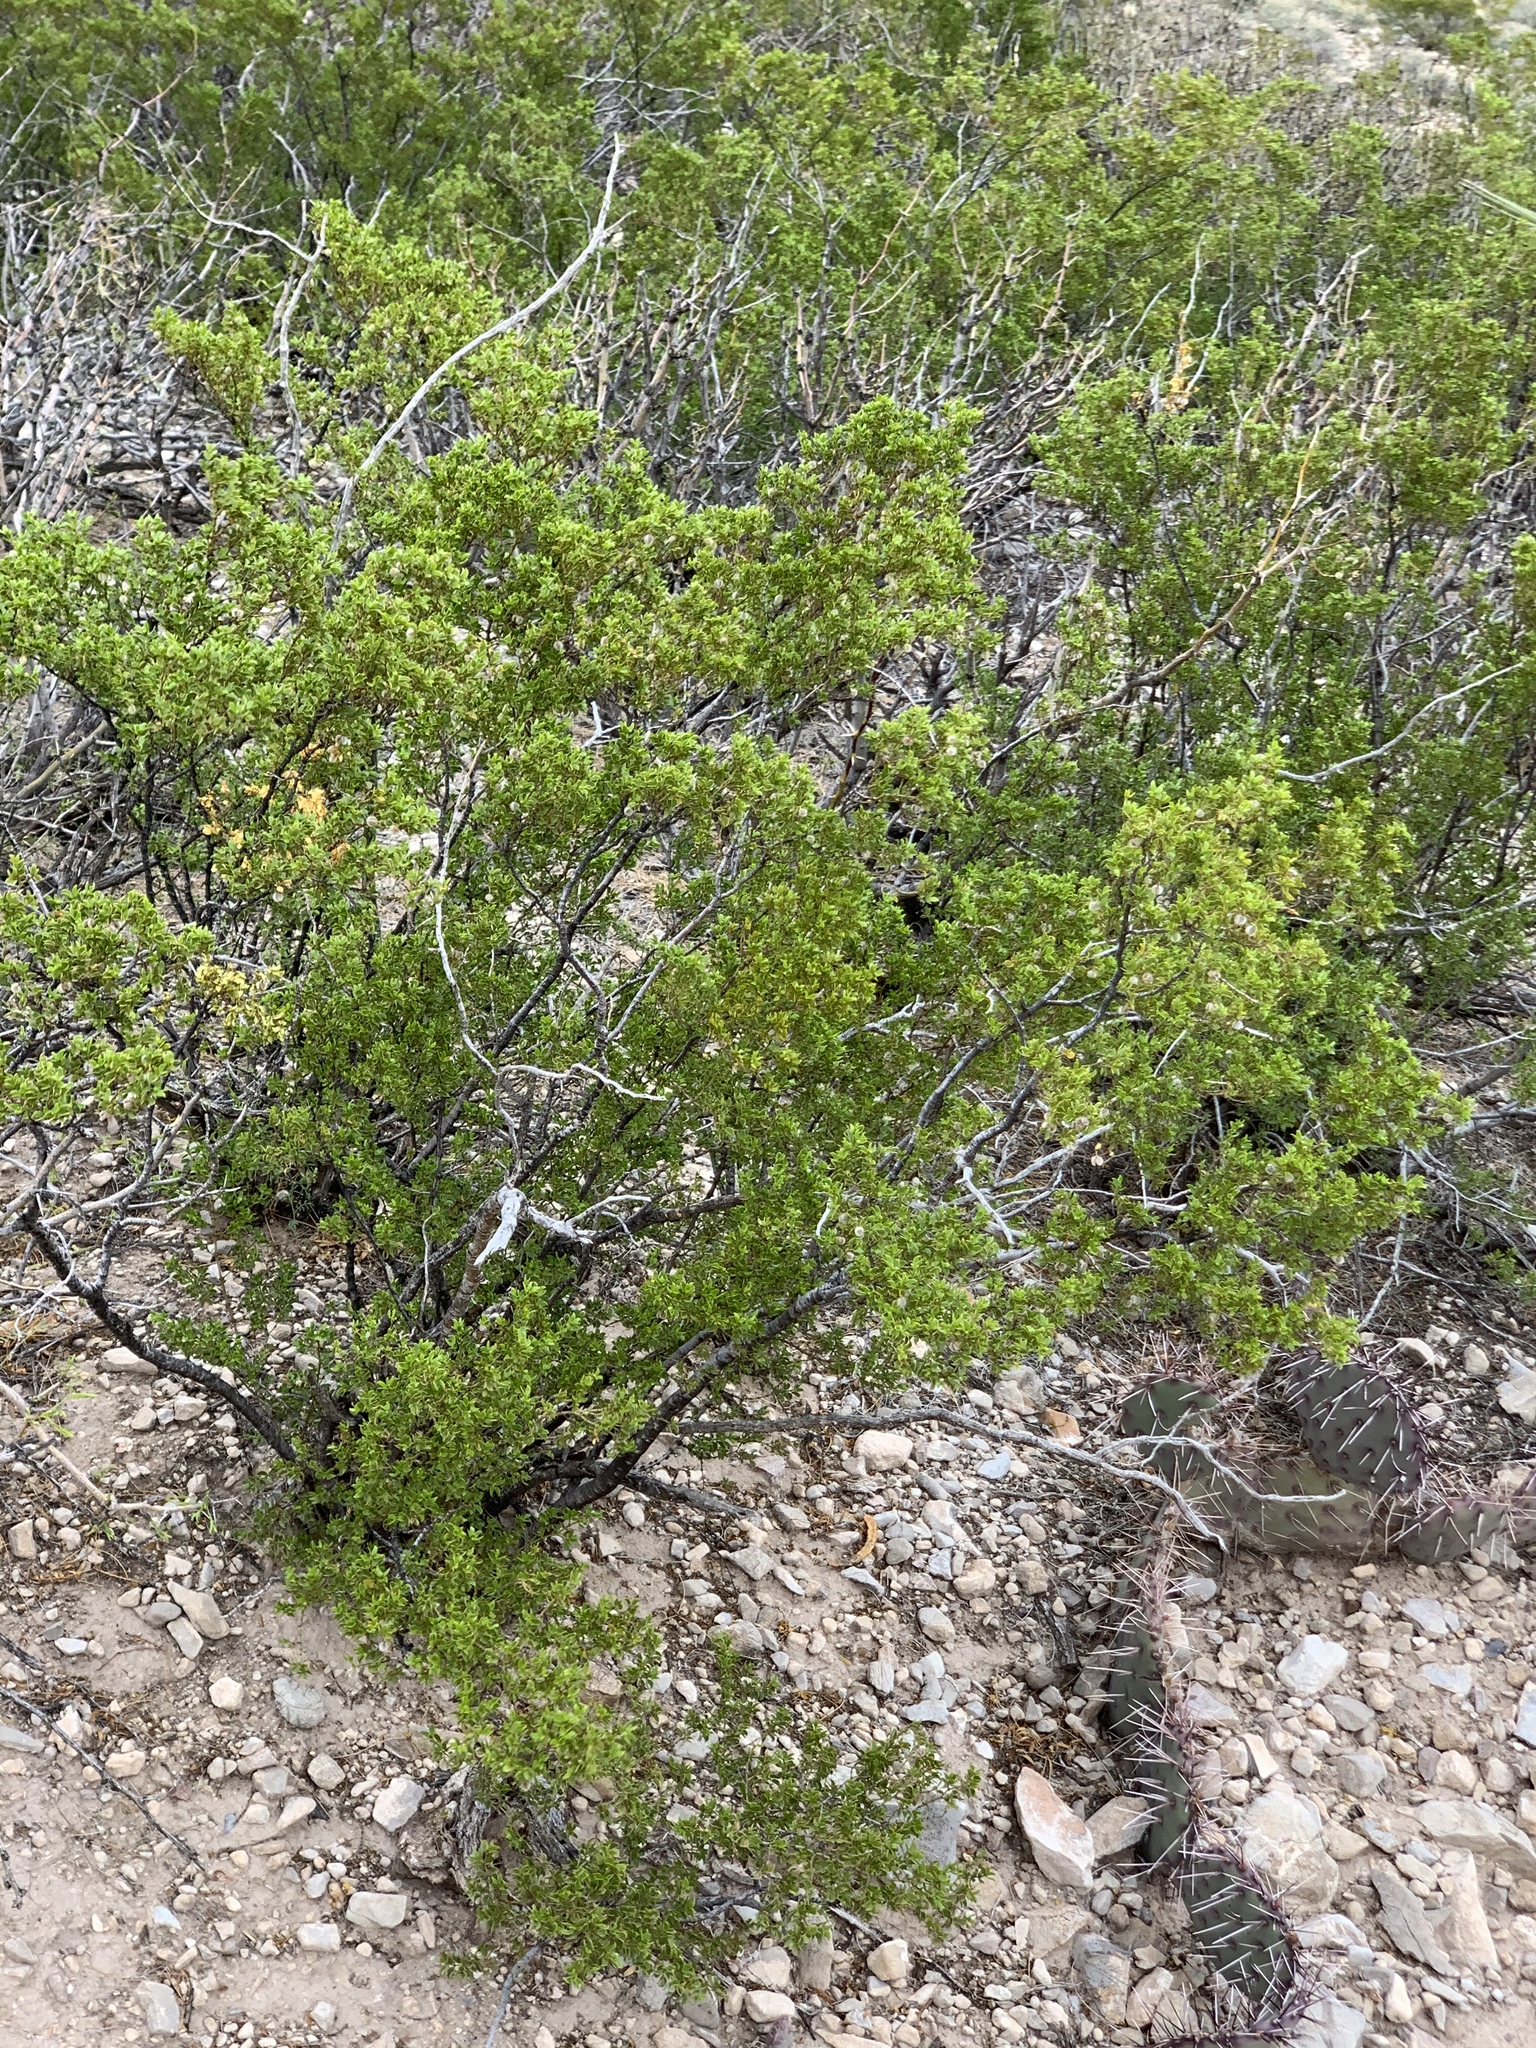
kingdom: Plantae
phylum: Tracheophyta
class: Magnoliopsida
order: Zygophyllales
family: Zygophyllaceae
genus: Larrea
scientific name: Larrea tridentata
